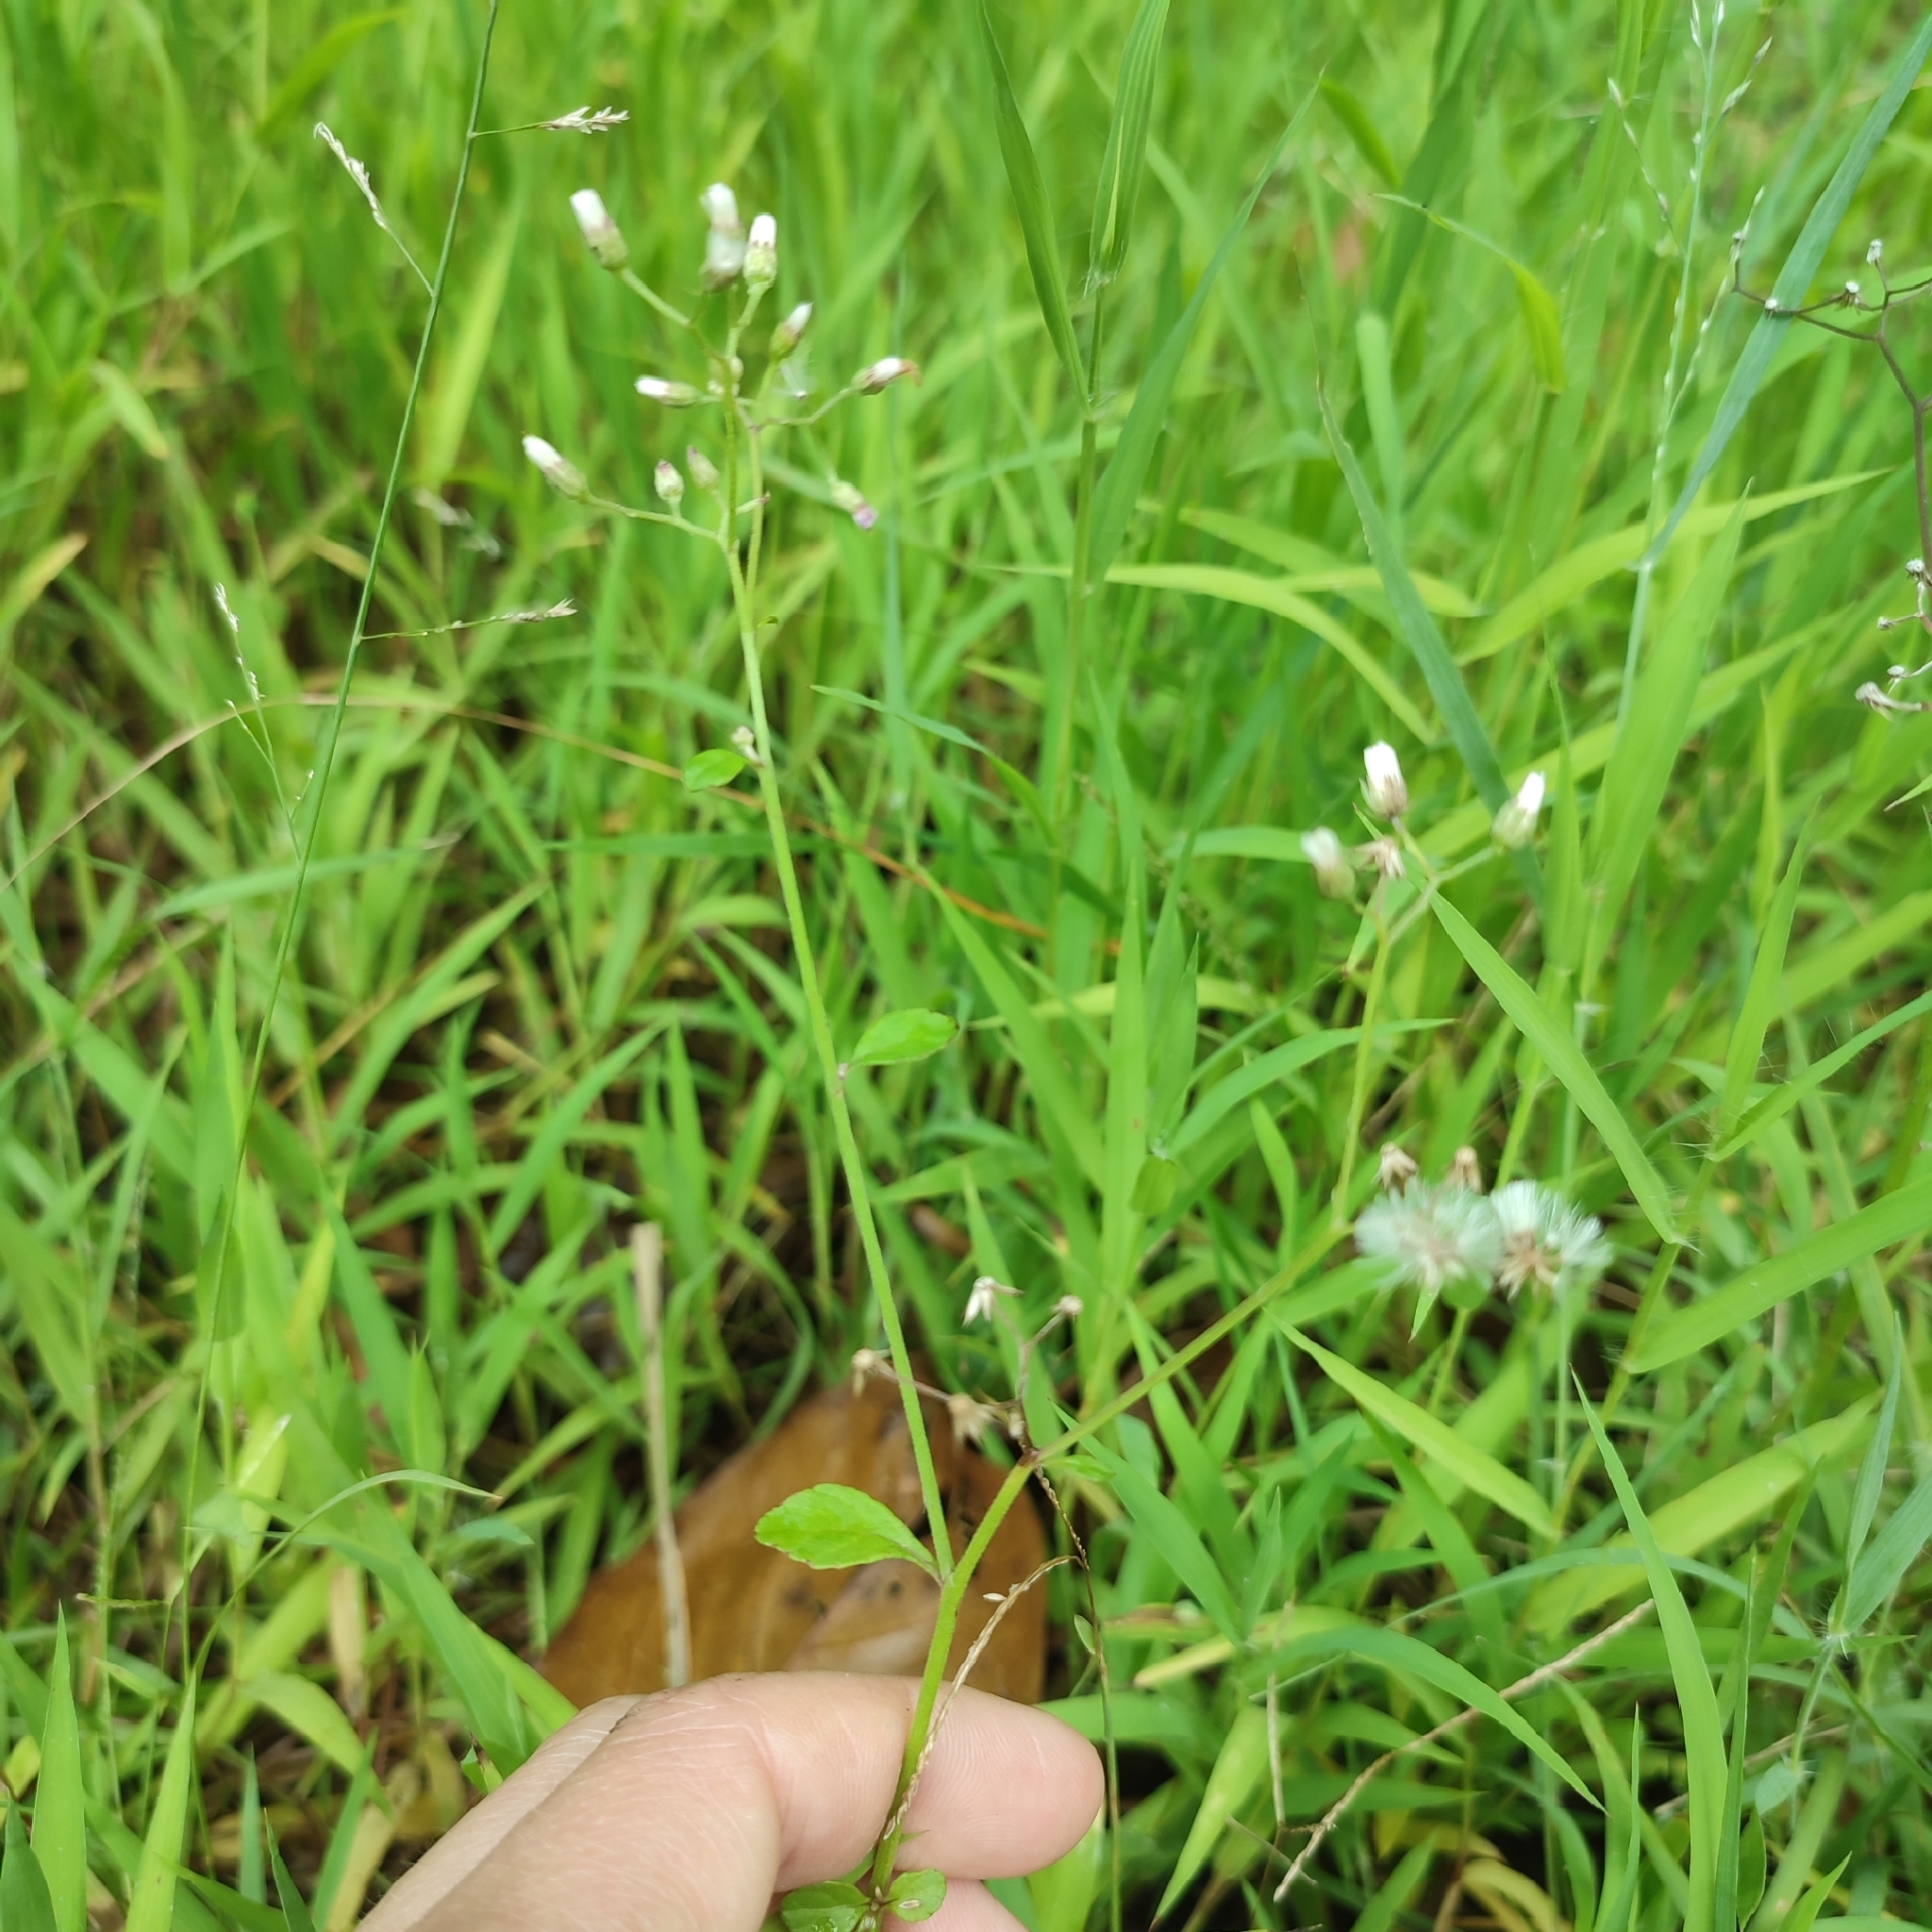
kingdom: Plantae
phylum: Tracheophyta
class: Magnoliopsida
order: Asterales
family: Asteraceae
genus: Cyanthillium
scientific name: Cyanthillium cinereum
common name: Little ironweed
